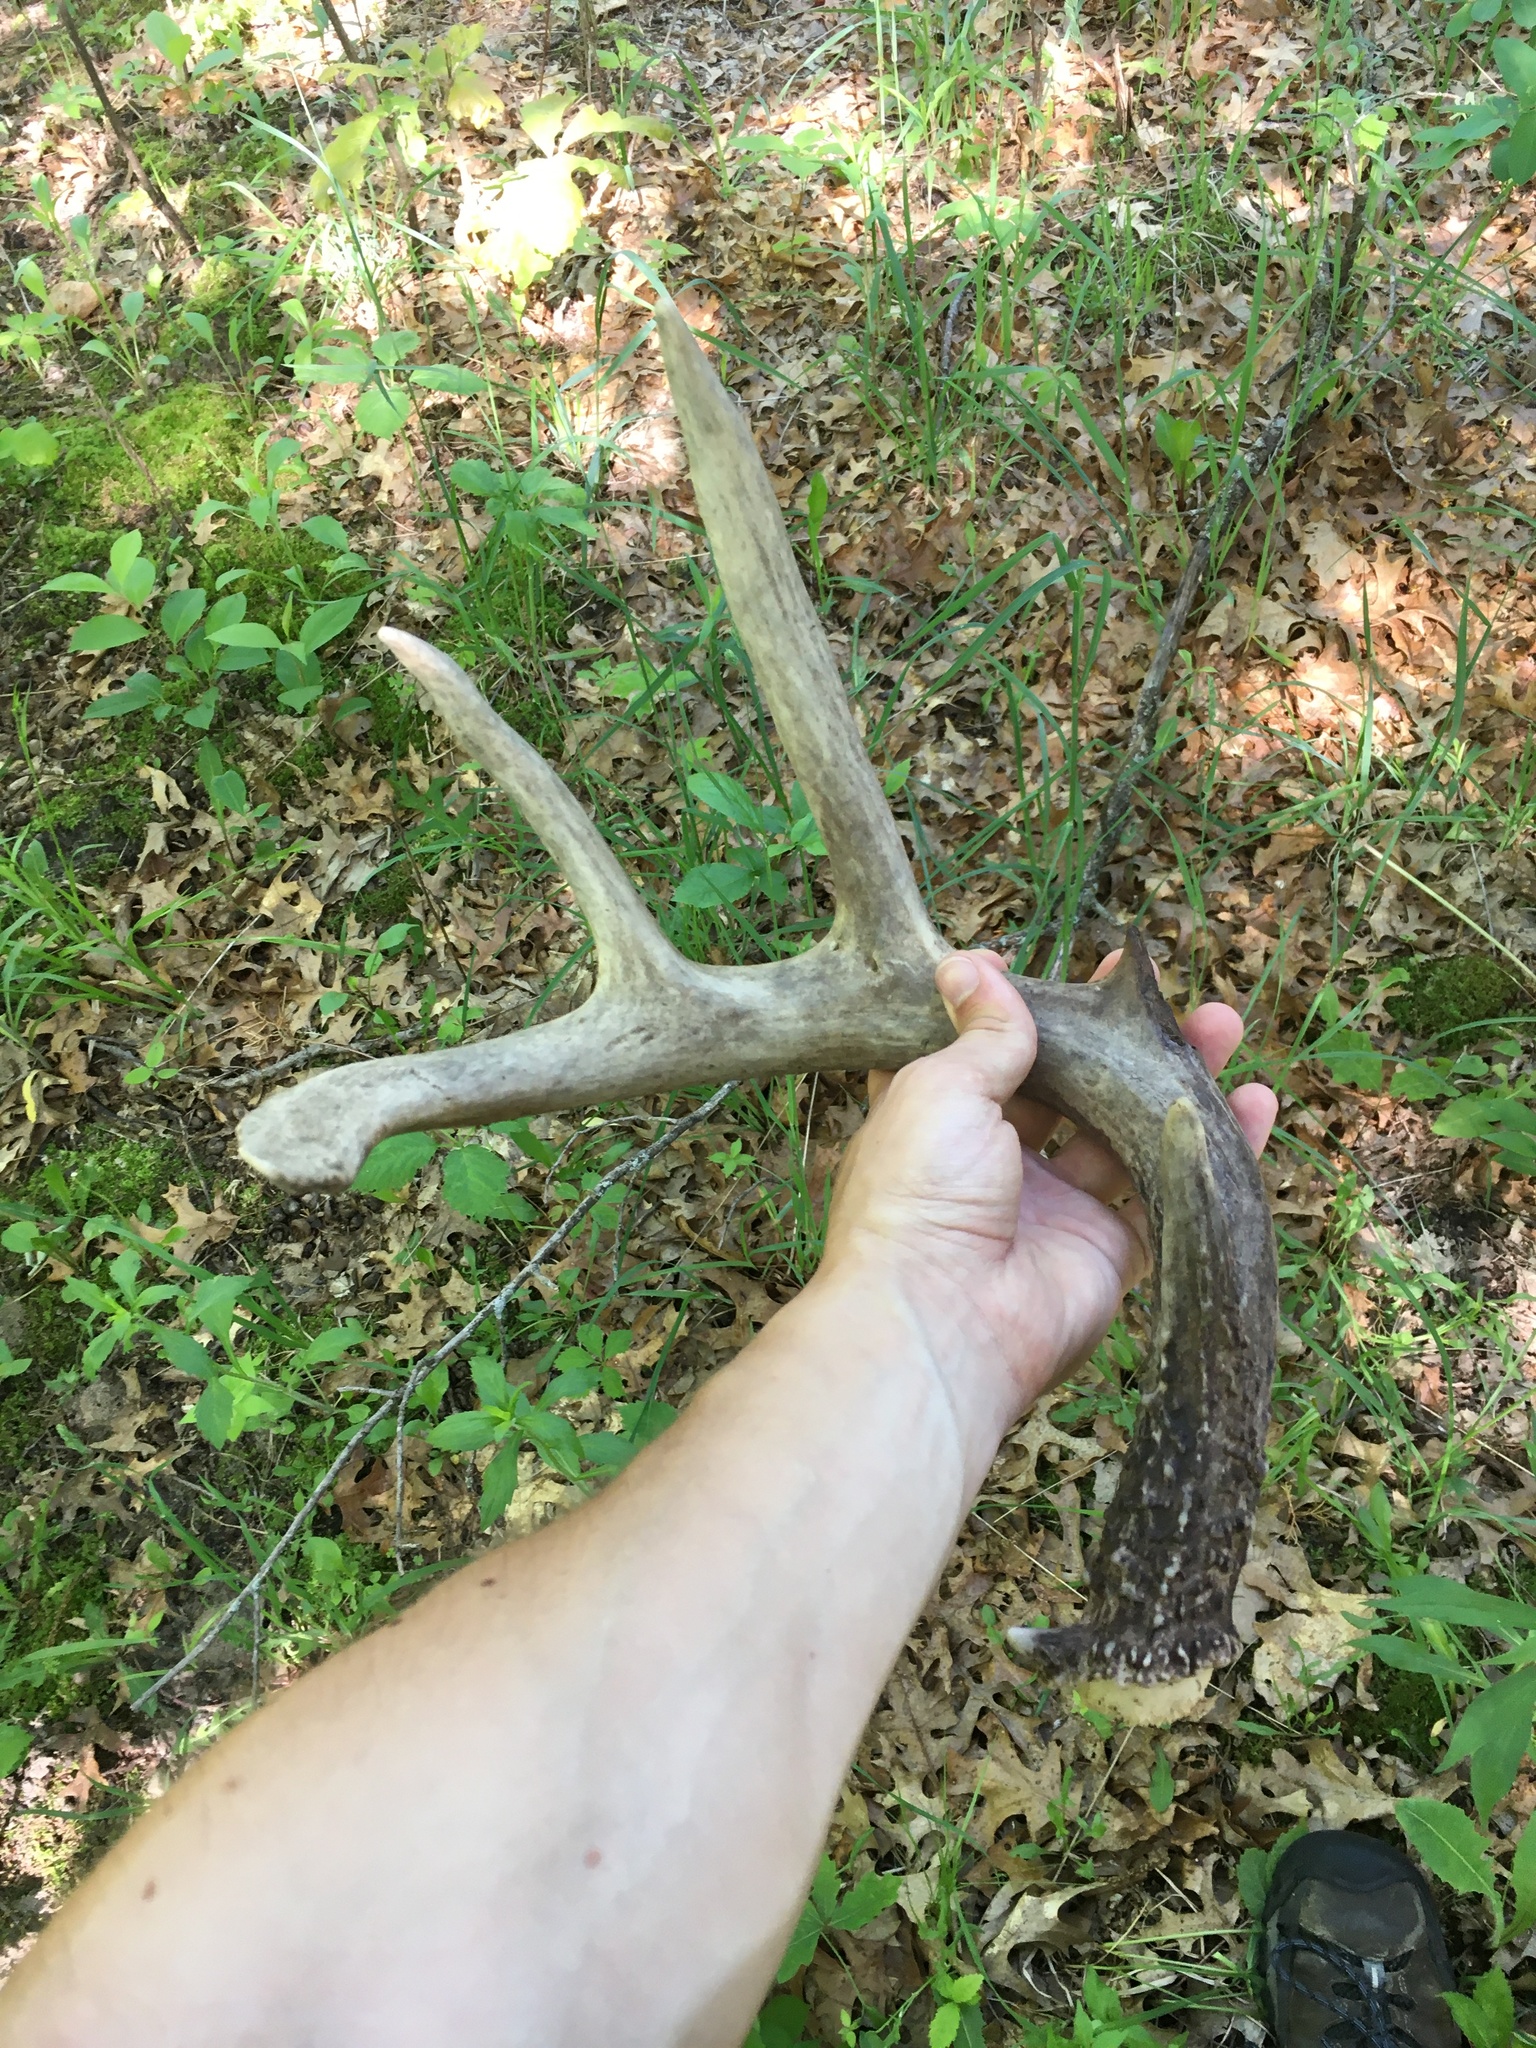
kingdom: Animalia
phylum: Chordata
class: Mammalia
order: Artiodactyla
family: Cervidae
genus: Odocoileus
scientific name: Odocoileus virginianus
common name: White-tailed deer
